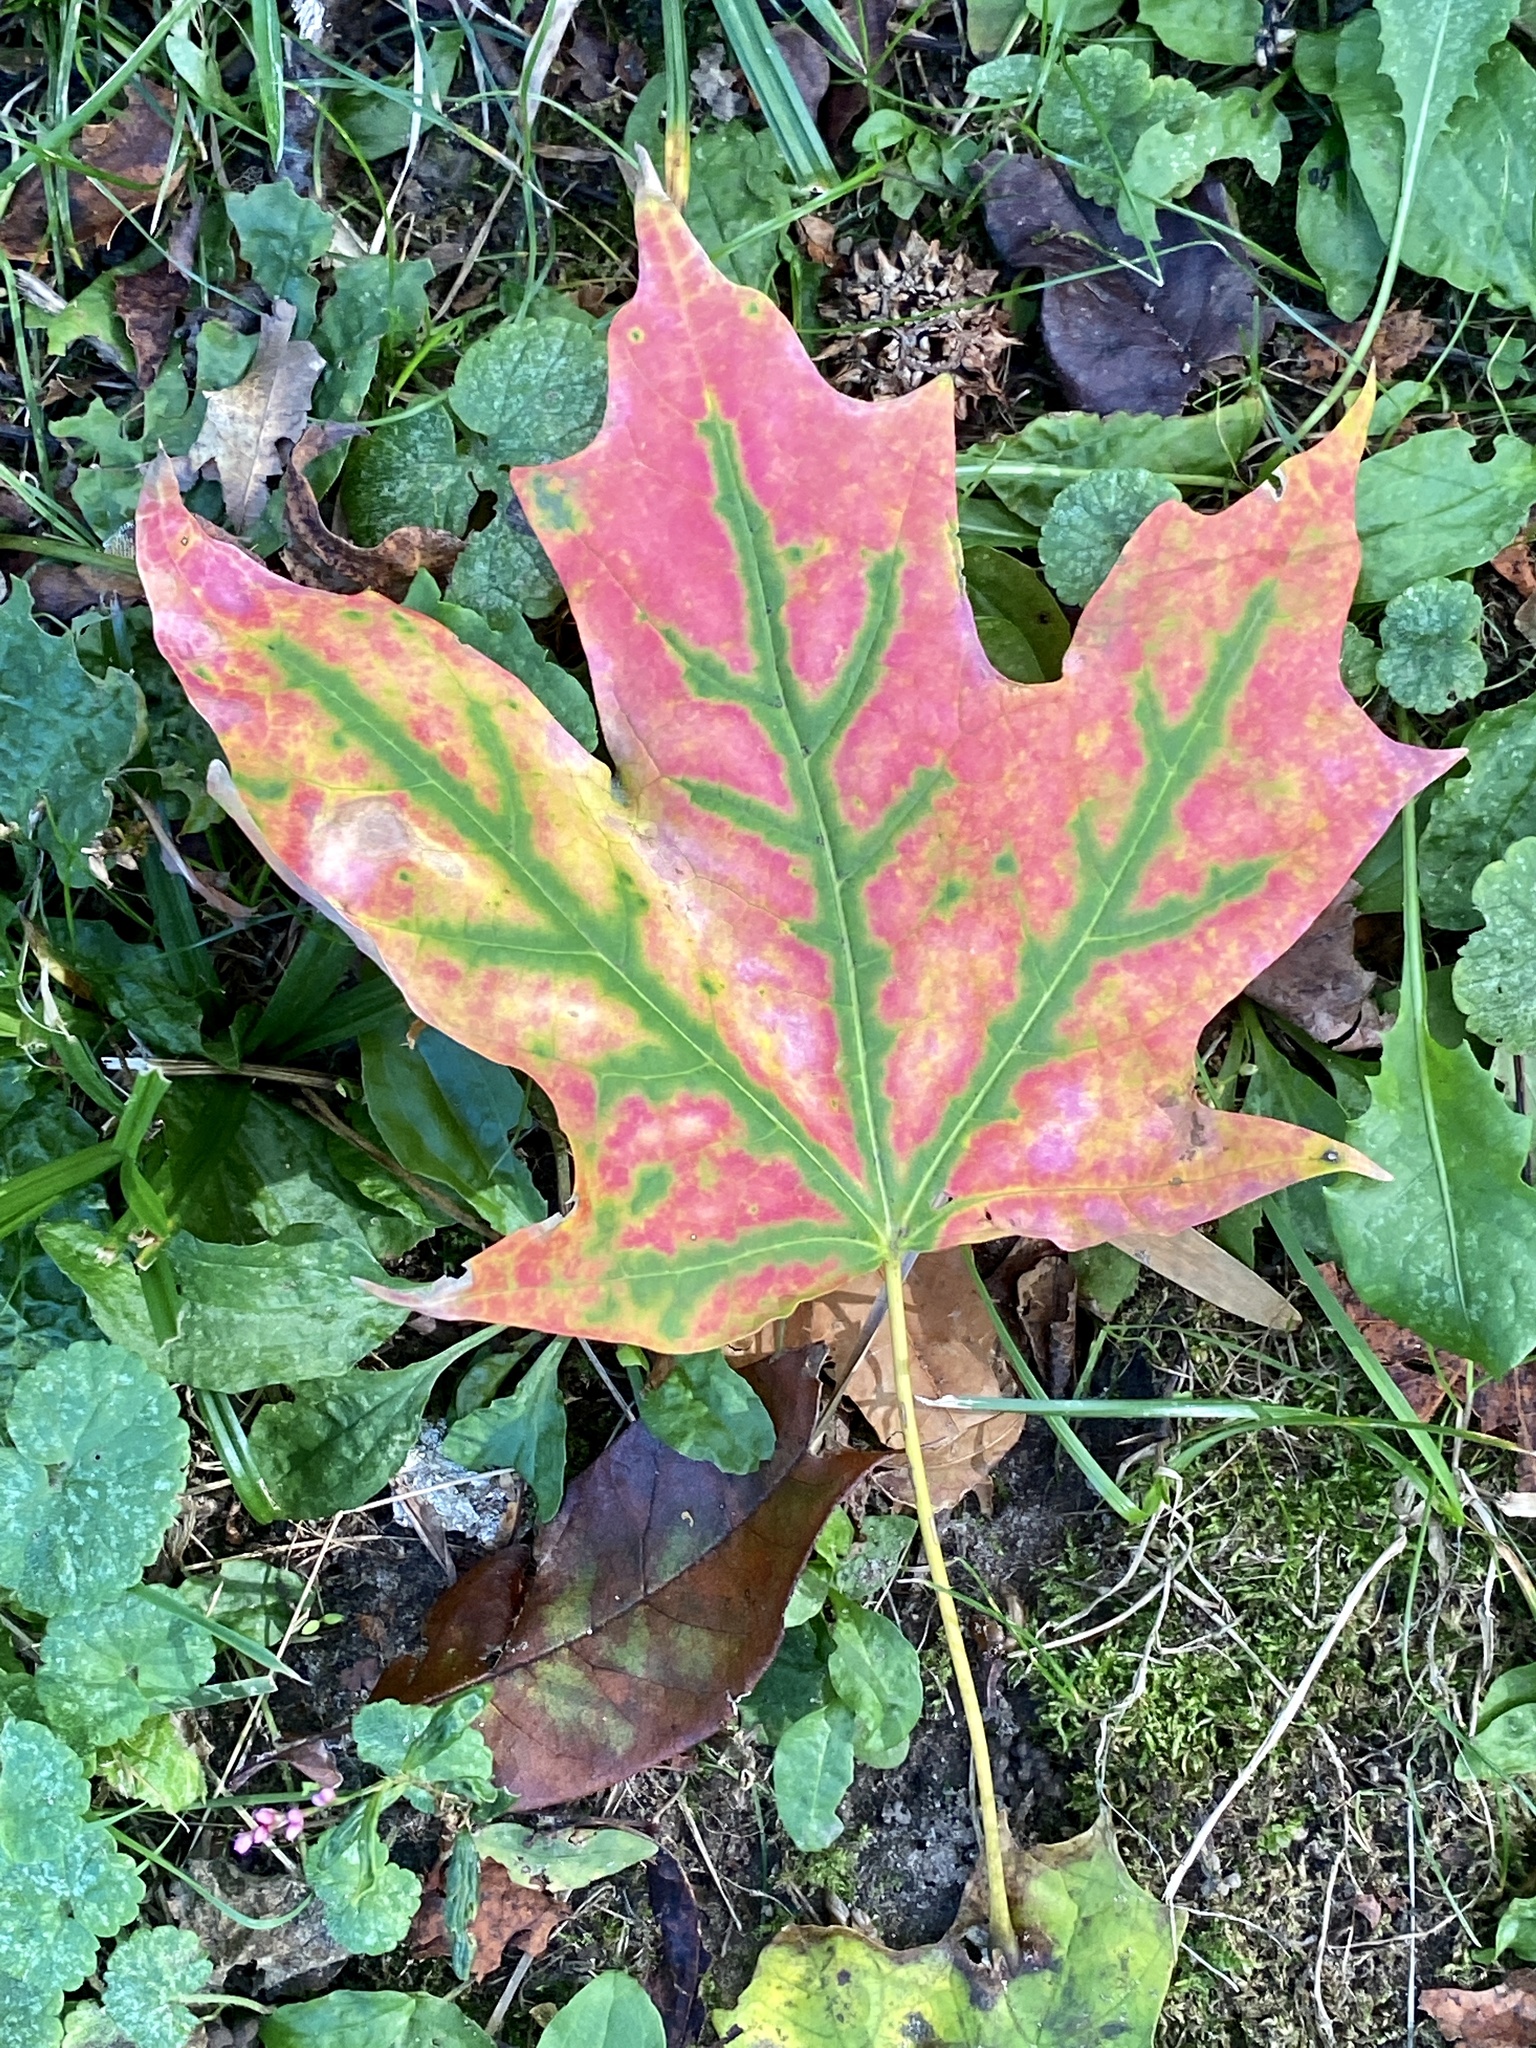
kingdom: Plantae
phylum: Tracheophyta
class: Magnoliopsida
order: Sapindales
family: Sapindaceae
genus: Acer
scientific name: Acer saccharum
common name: Sugar maple
